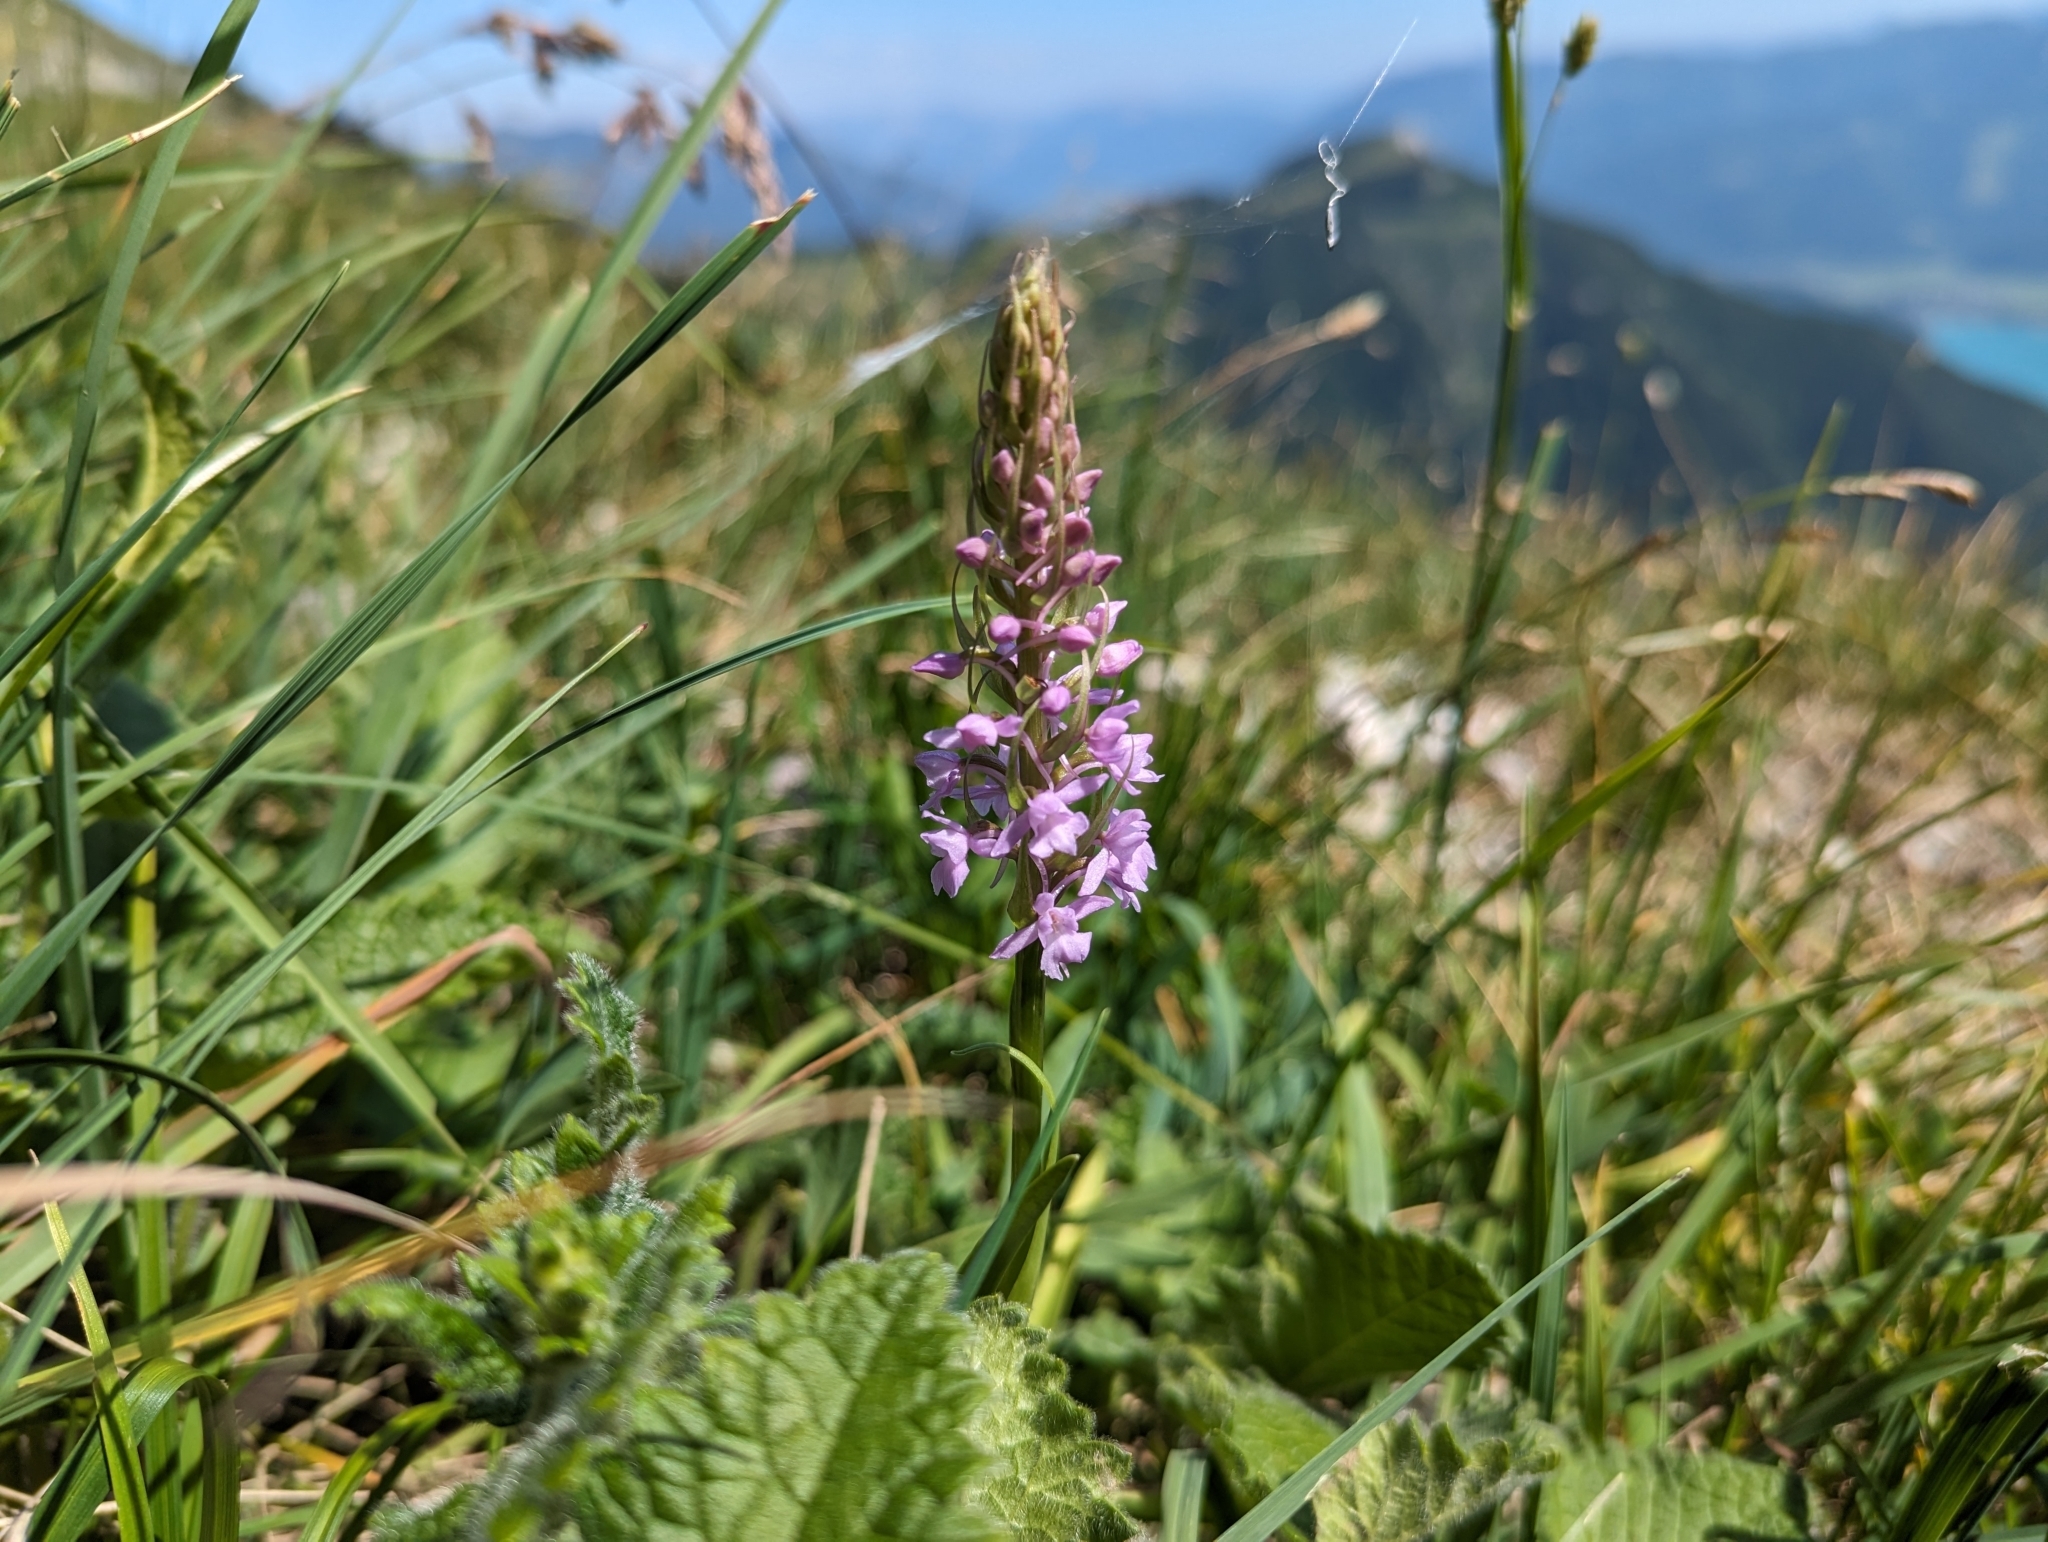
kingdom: Plantae
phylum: Tracheophyta
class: Liliopsida
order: Asparagales
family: Orchidaceae
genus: Gymnadenia
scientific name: Gymnadenia conopsea
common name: Fragrant orchid
